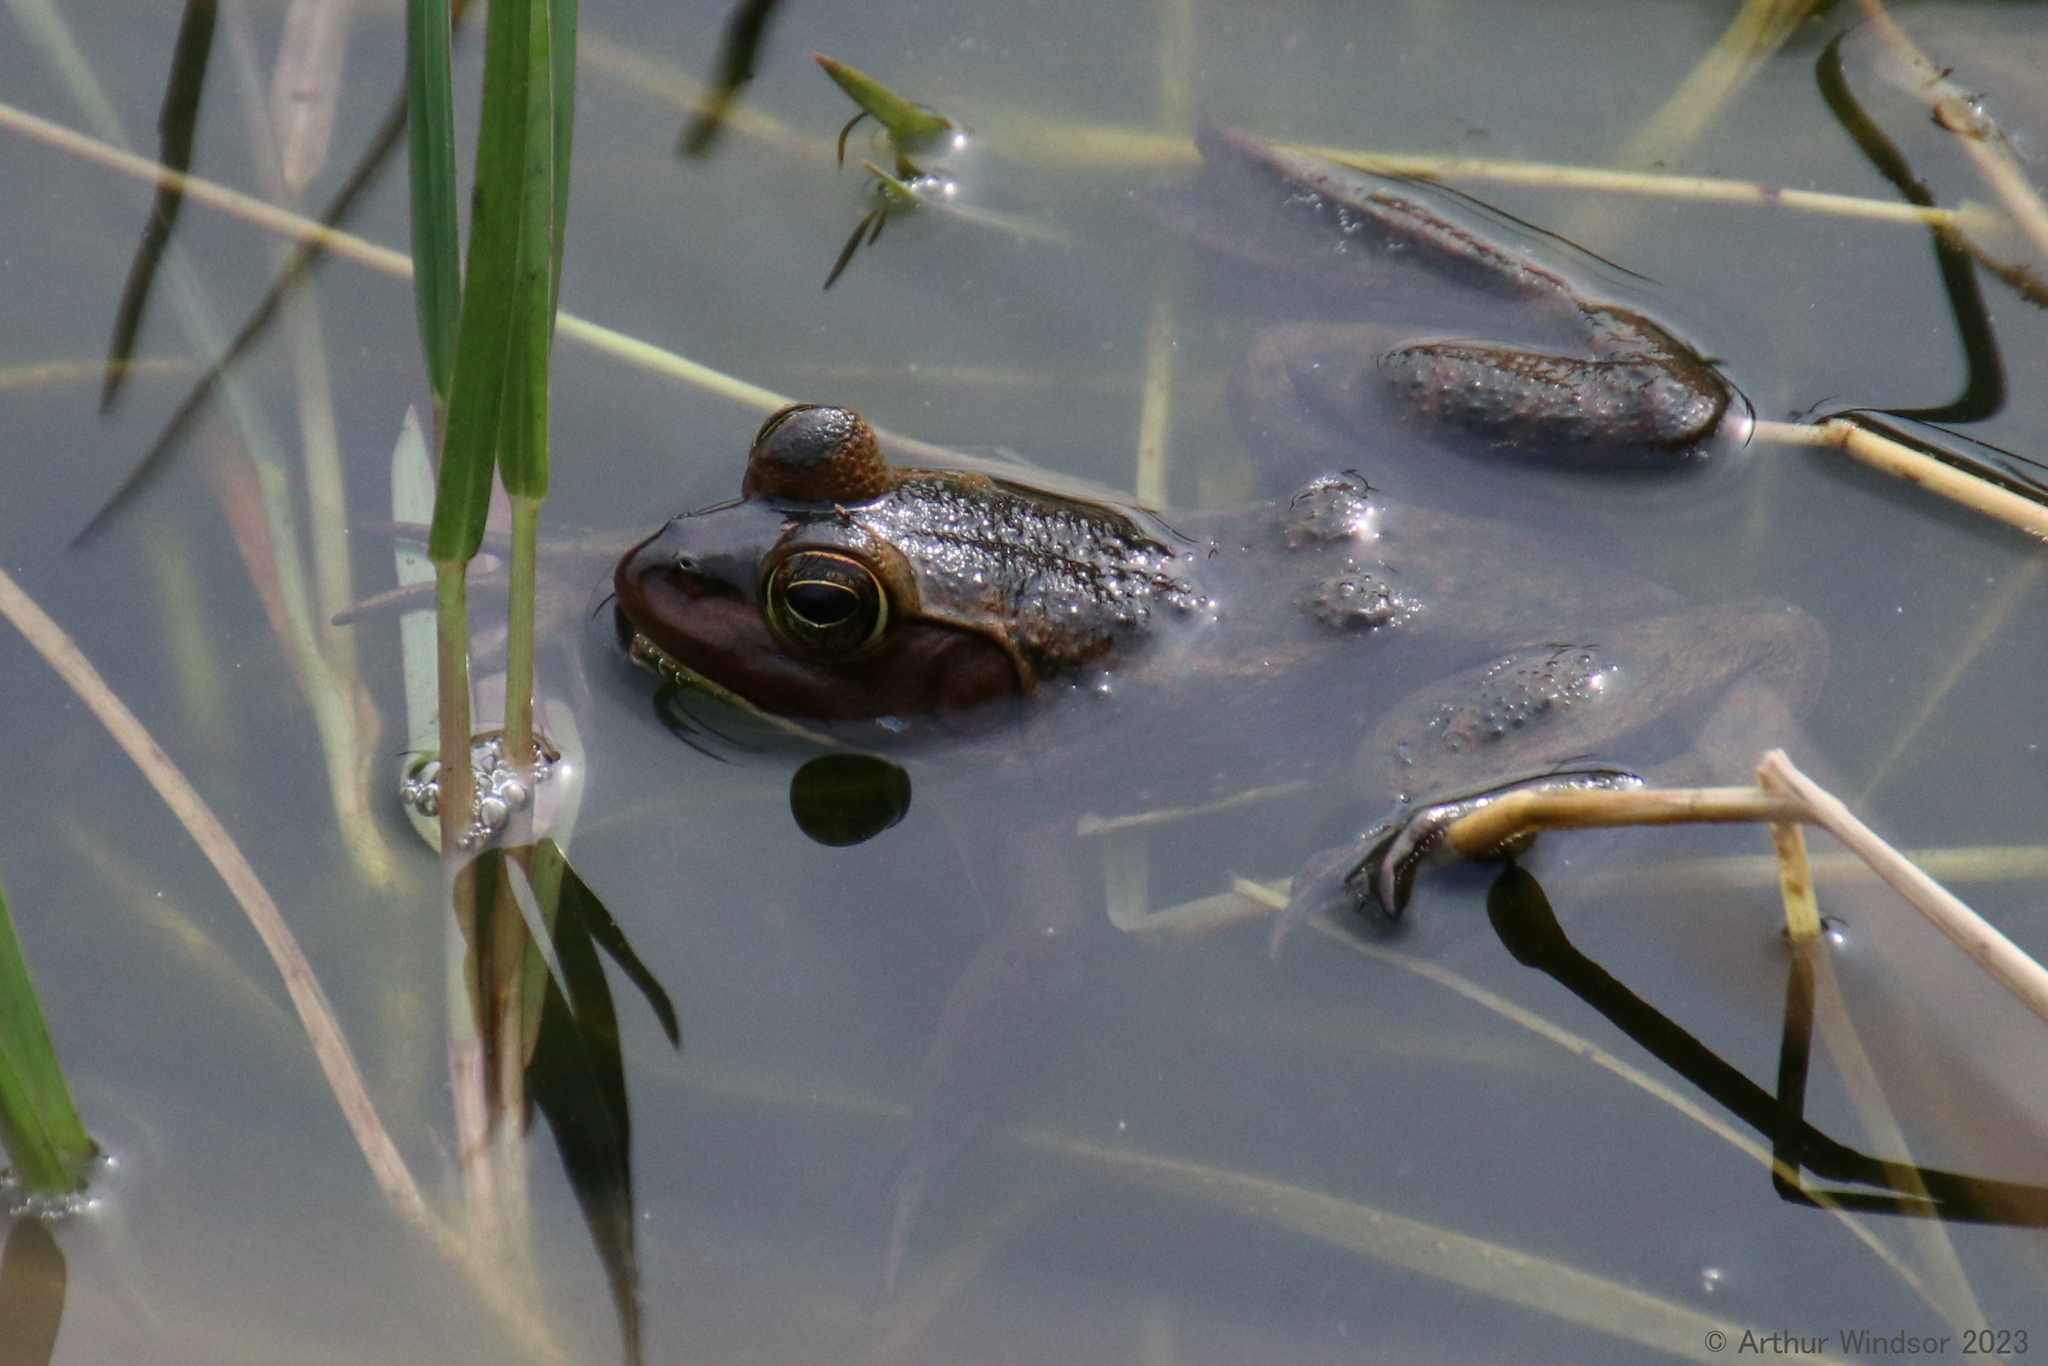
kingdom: Animalia
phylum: Chordata
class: Amphibia
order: Anura
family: Ranidae
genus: Lithobates
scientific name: Lithobates grylio
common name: Pig frog
